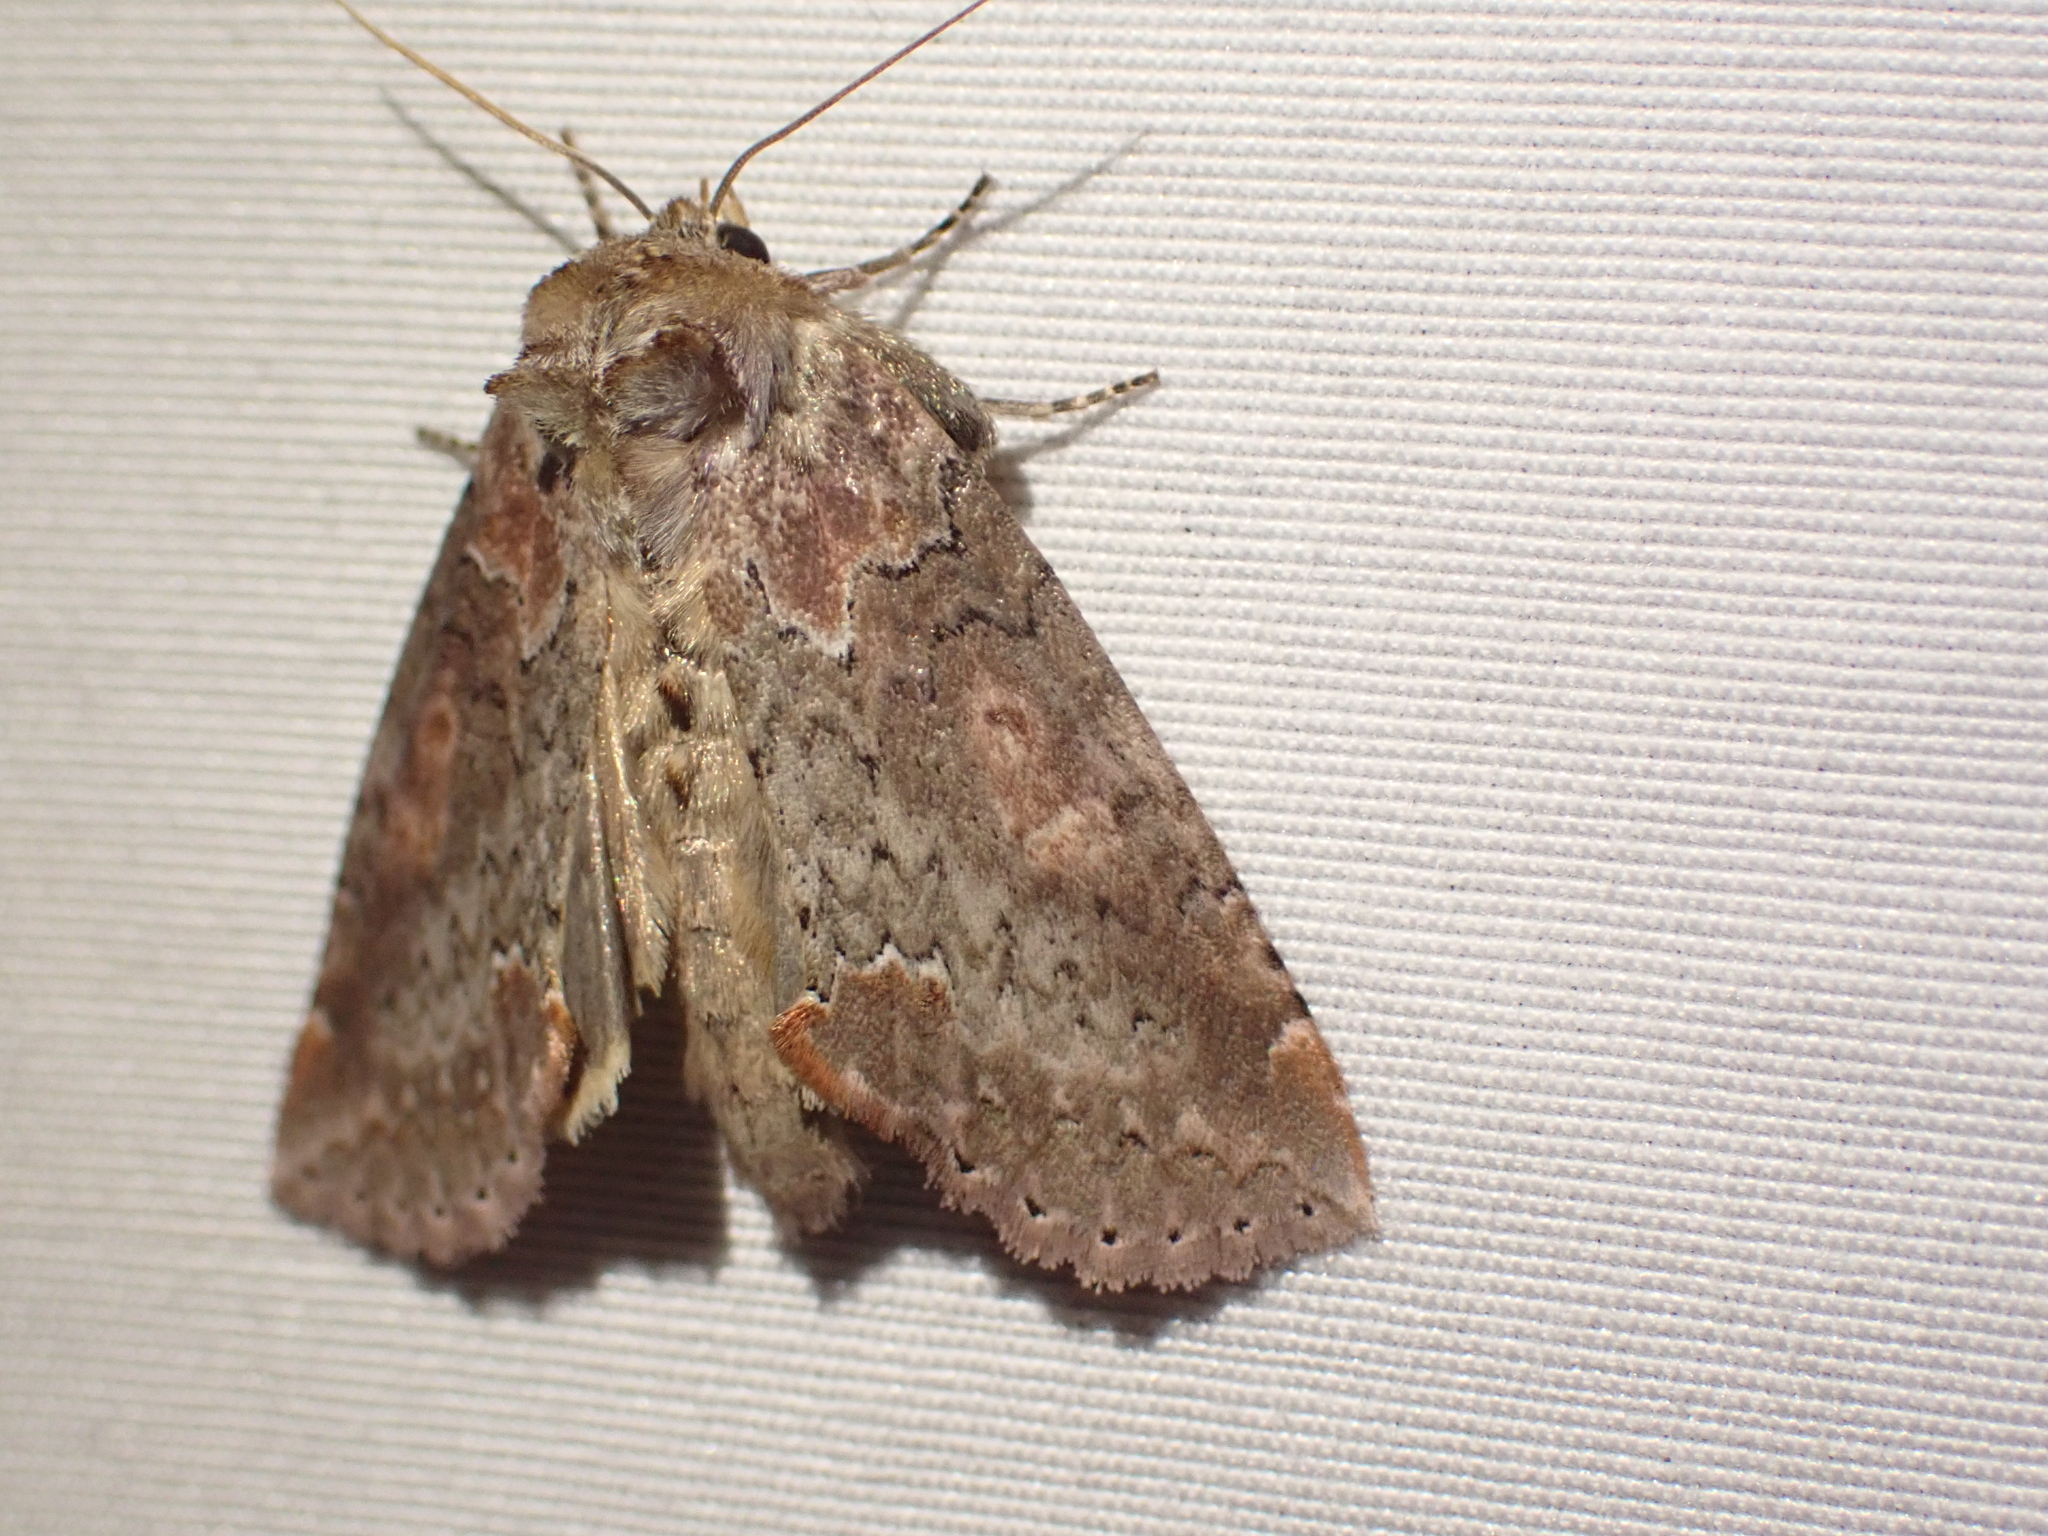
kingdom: Animalia
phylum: Arthropoda
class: Insecta
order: Lepidoptera
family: Drepanidae
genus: Pseudothyatira
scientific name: Pseudothyatira cymatophoroides
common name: Tufted thyatirid moth
